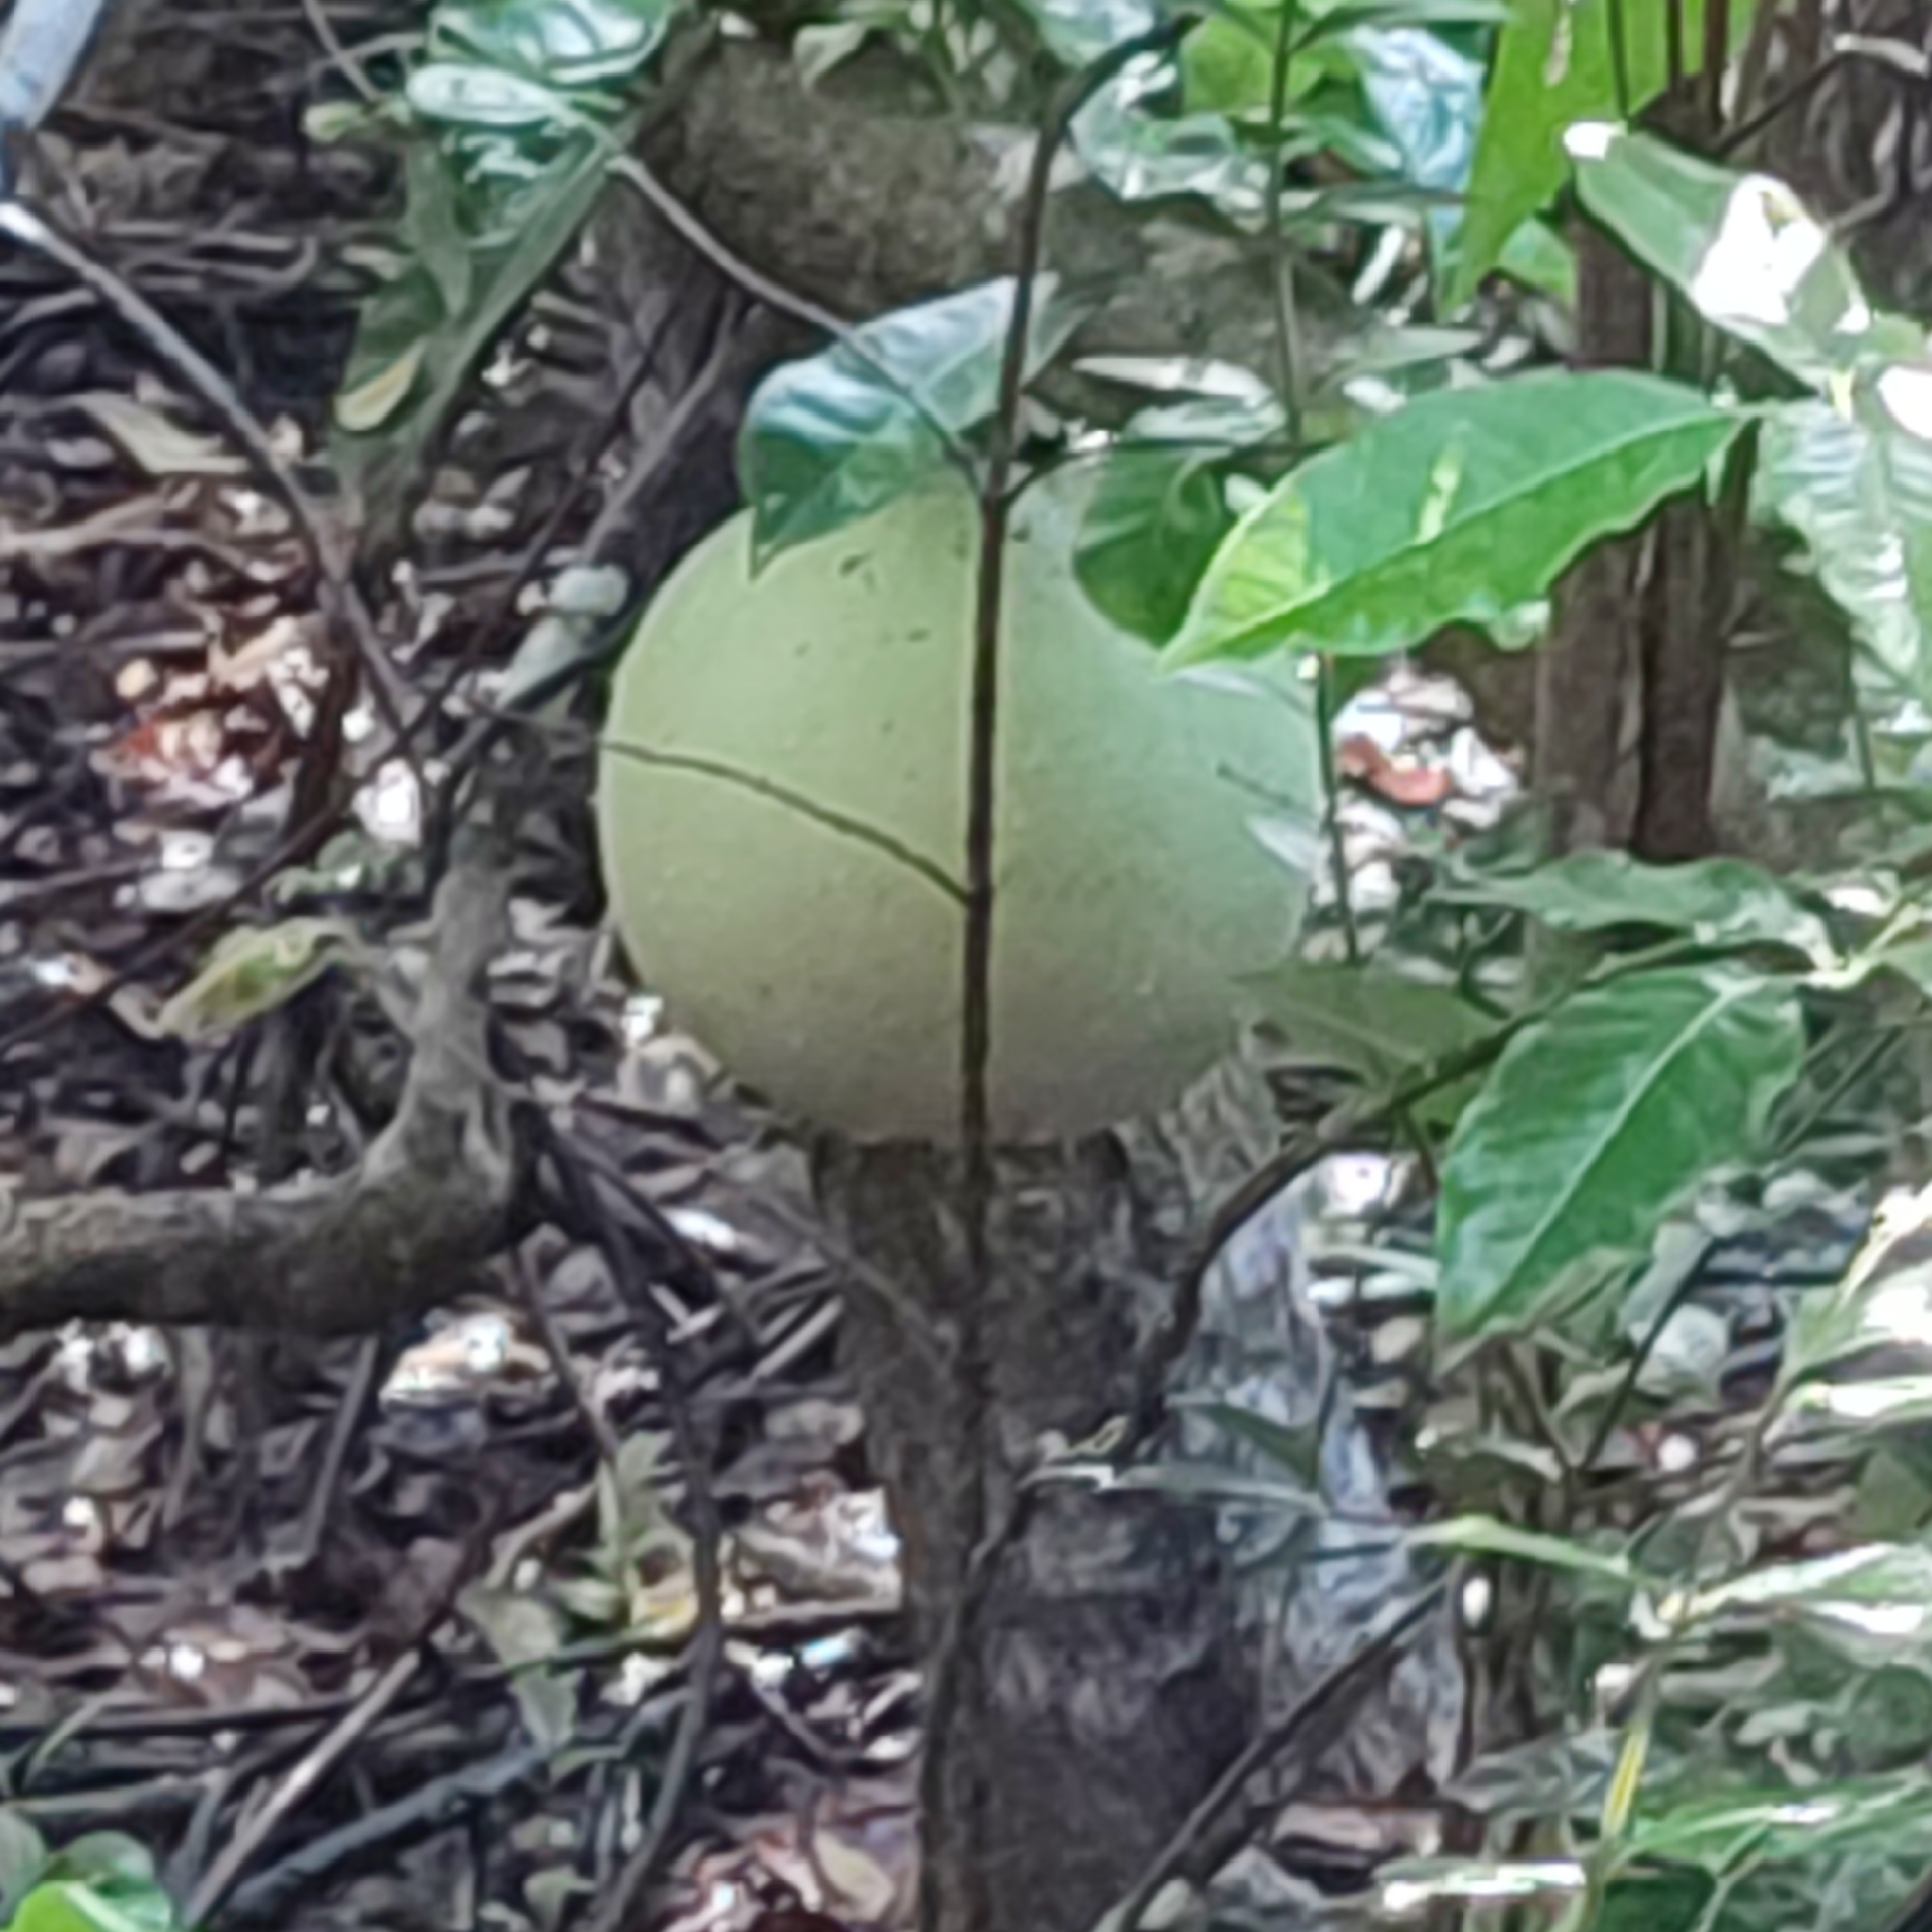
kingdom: Plantae
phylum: Tracheophyta
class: Magnoliopsida
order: Lamiales
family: Bignoniaceae
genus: Crescentia
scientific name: Crescentia cujete
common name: Calabash
